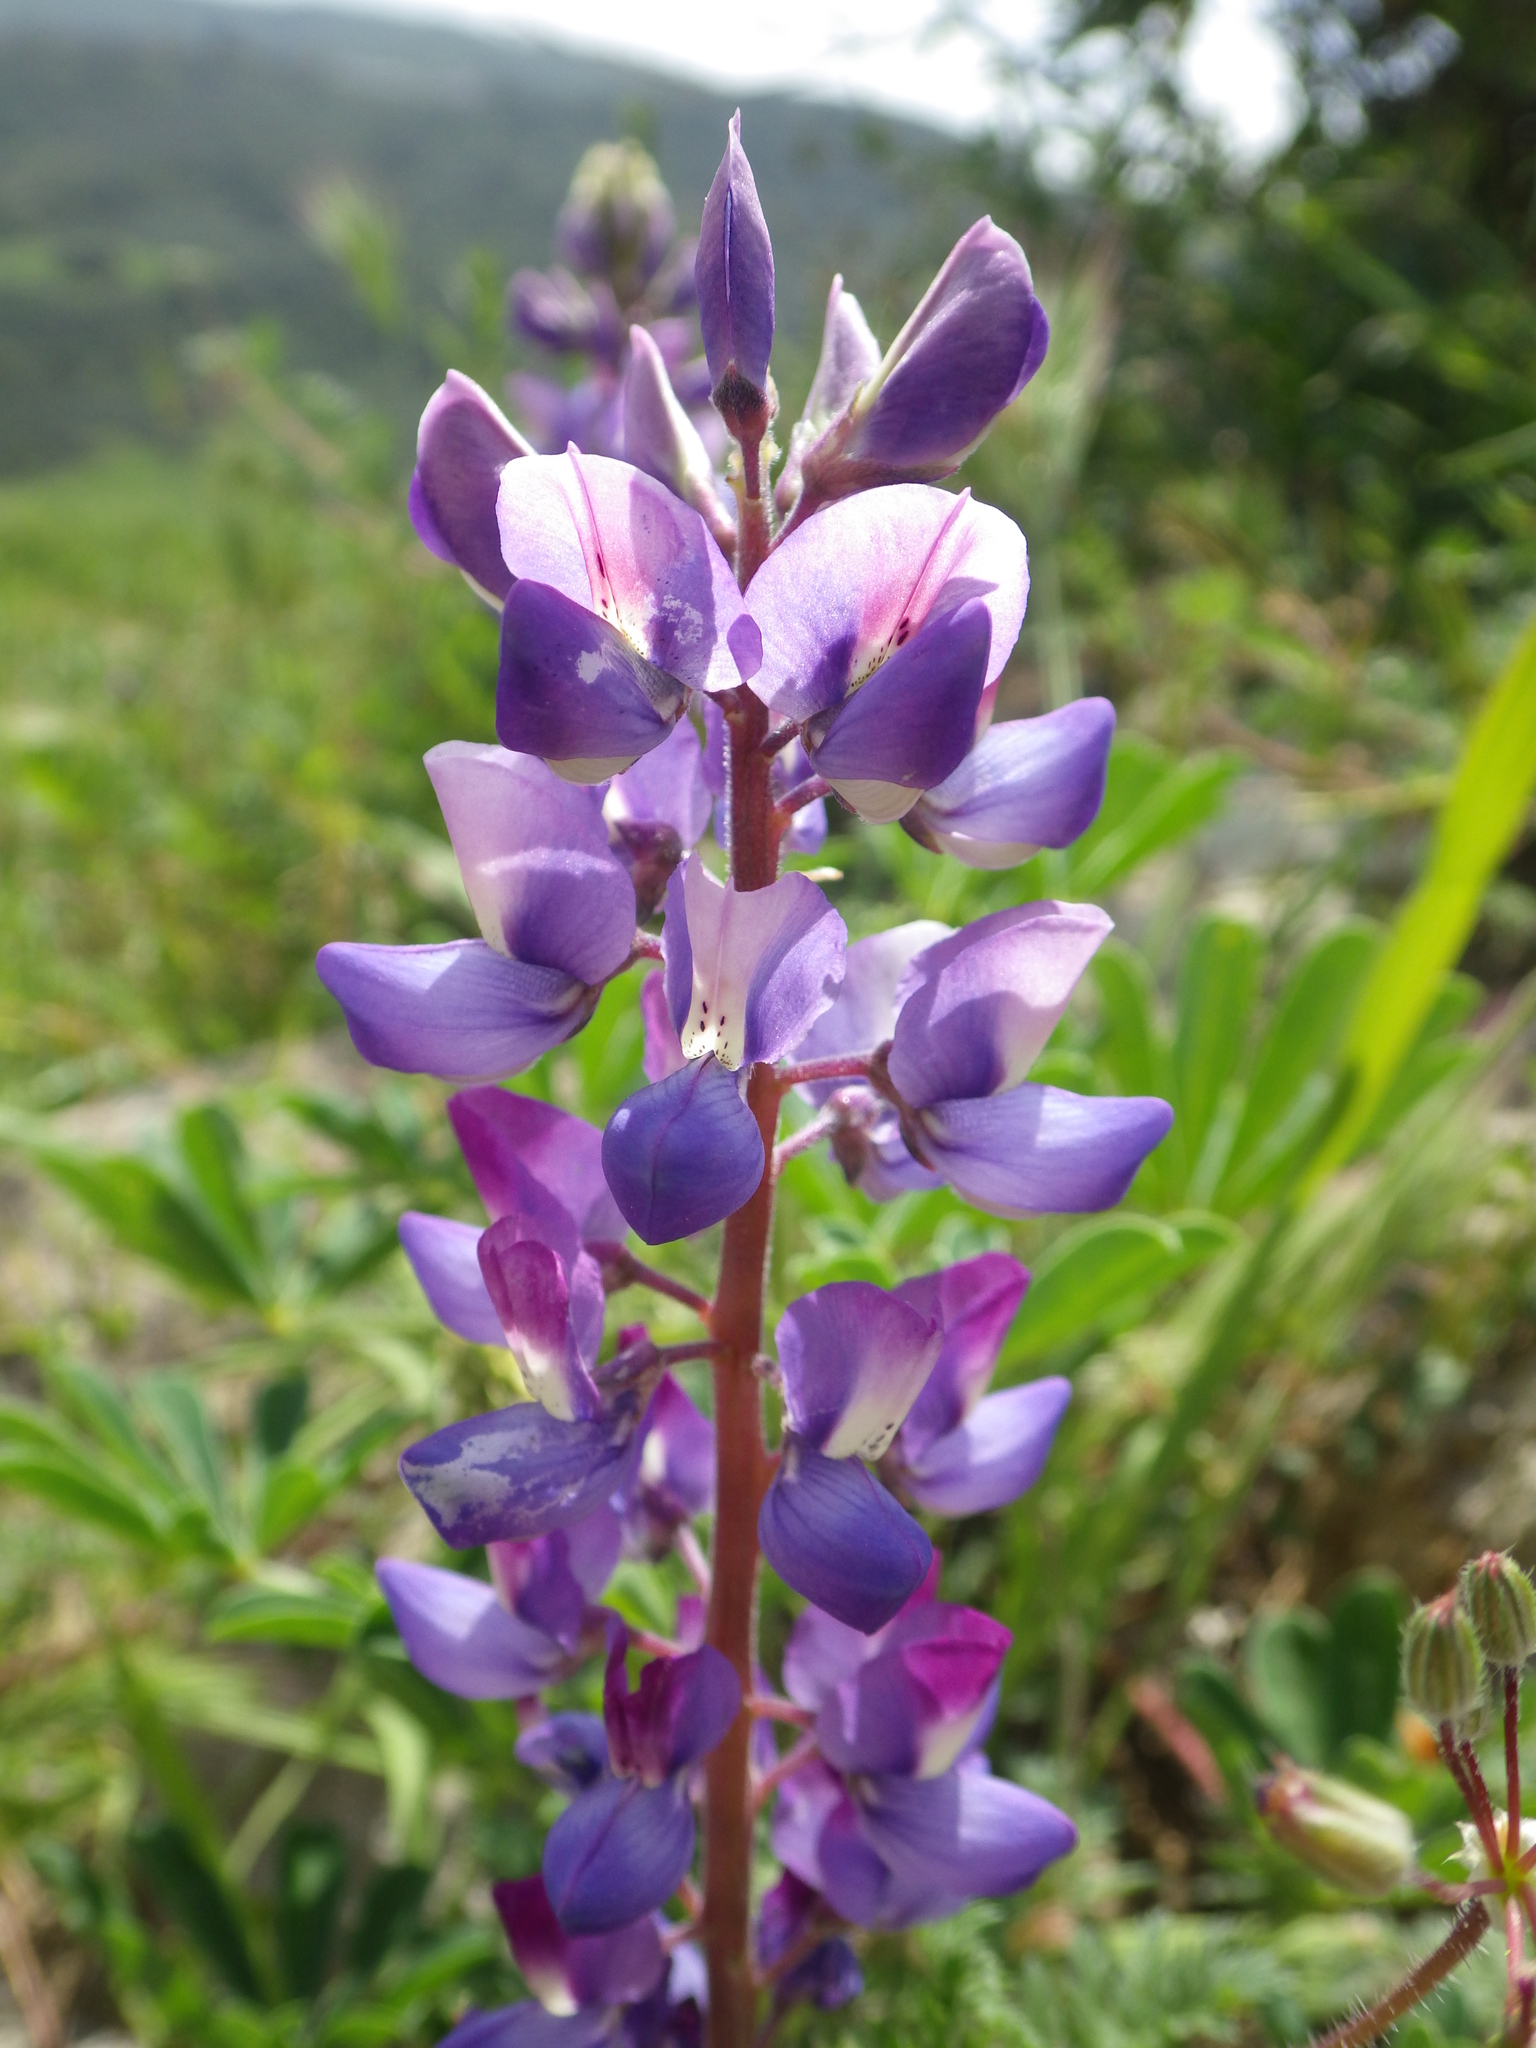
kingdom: Plantae
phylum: Tracheophyta
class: Magnoliopsida
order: Fabales
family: Fabaceae
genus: Lupinus
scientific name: Lupinus succulentus
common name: Arroyo lupine
